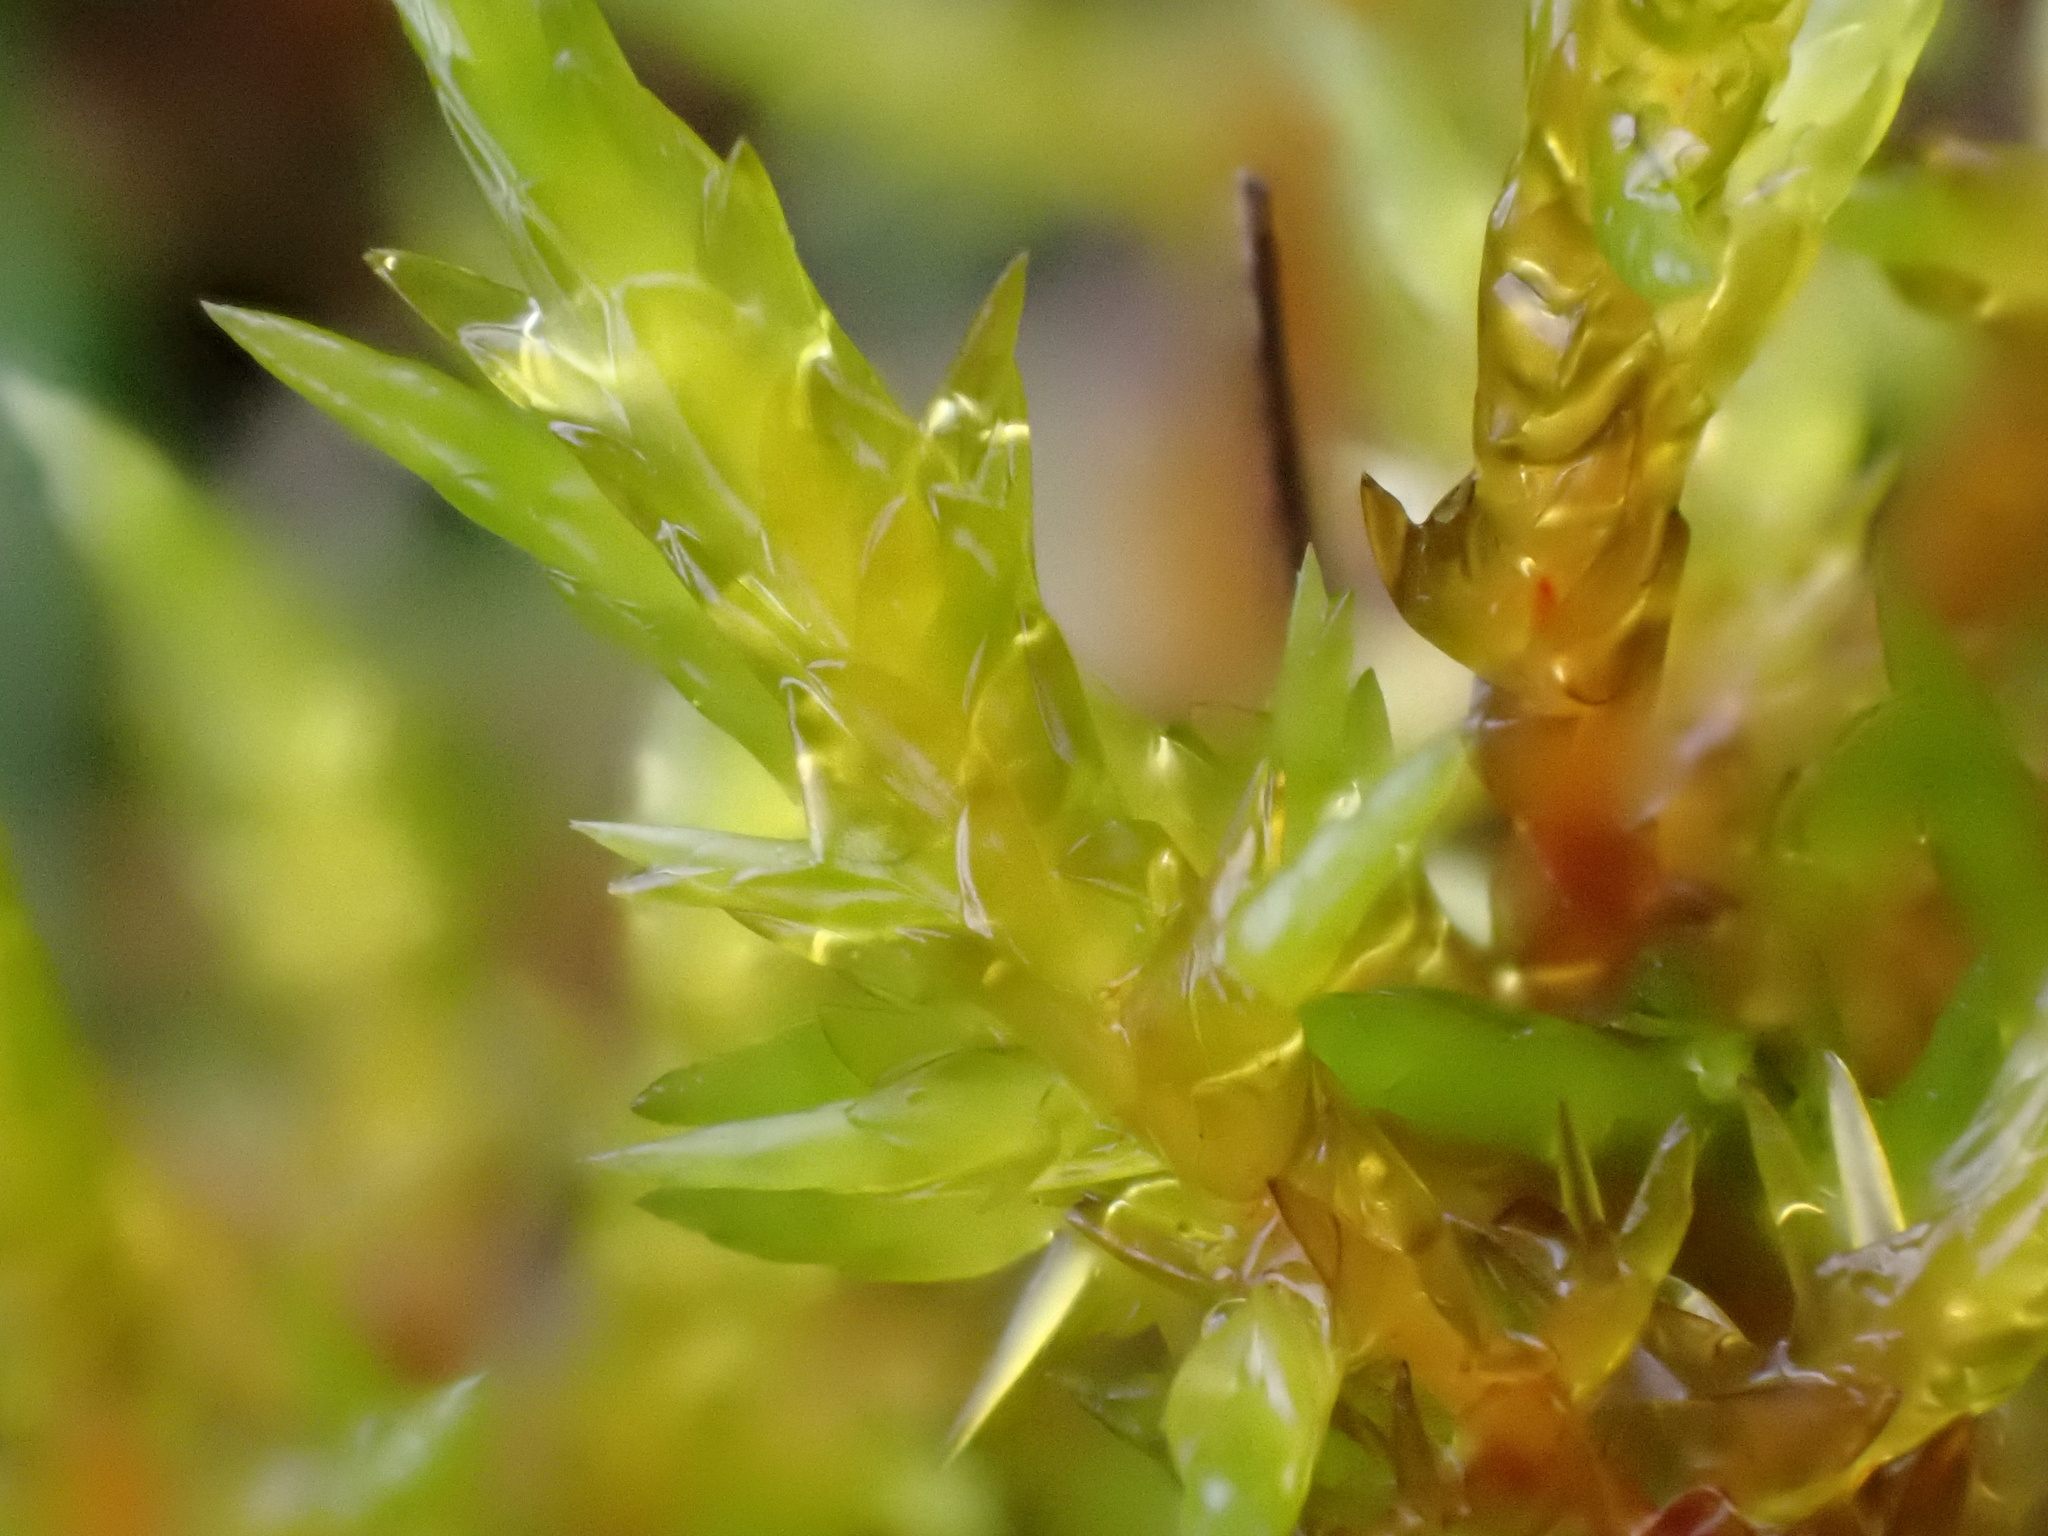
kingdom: Plantae
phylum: Bryophyta
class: Bryopsida
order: Hypnales
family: Pylaisiaceae
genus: Calliergonella
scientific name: Calliergonella cuspidata
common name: Common large wetland moss
